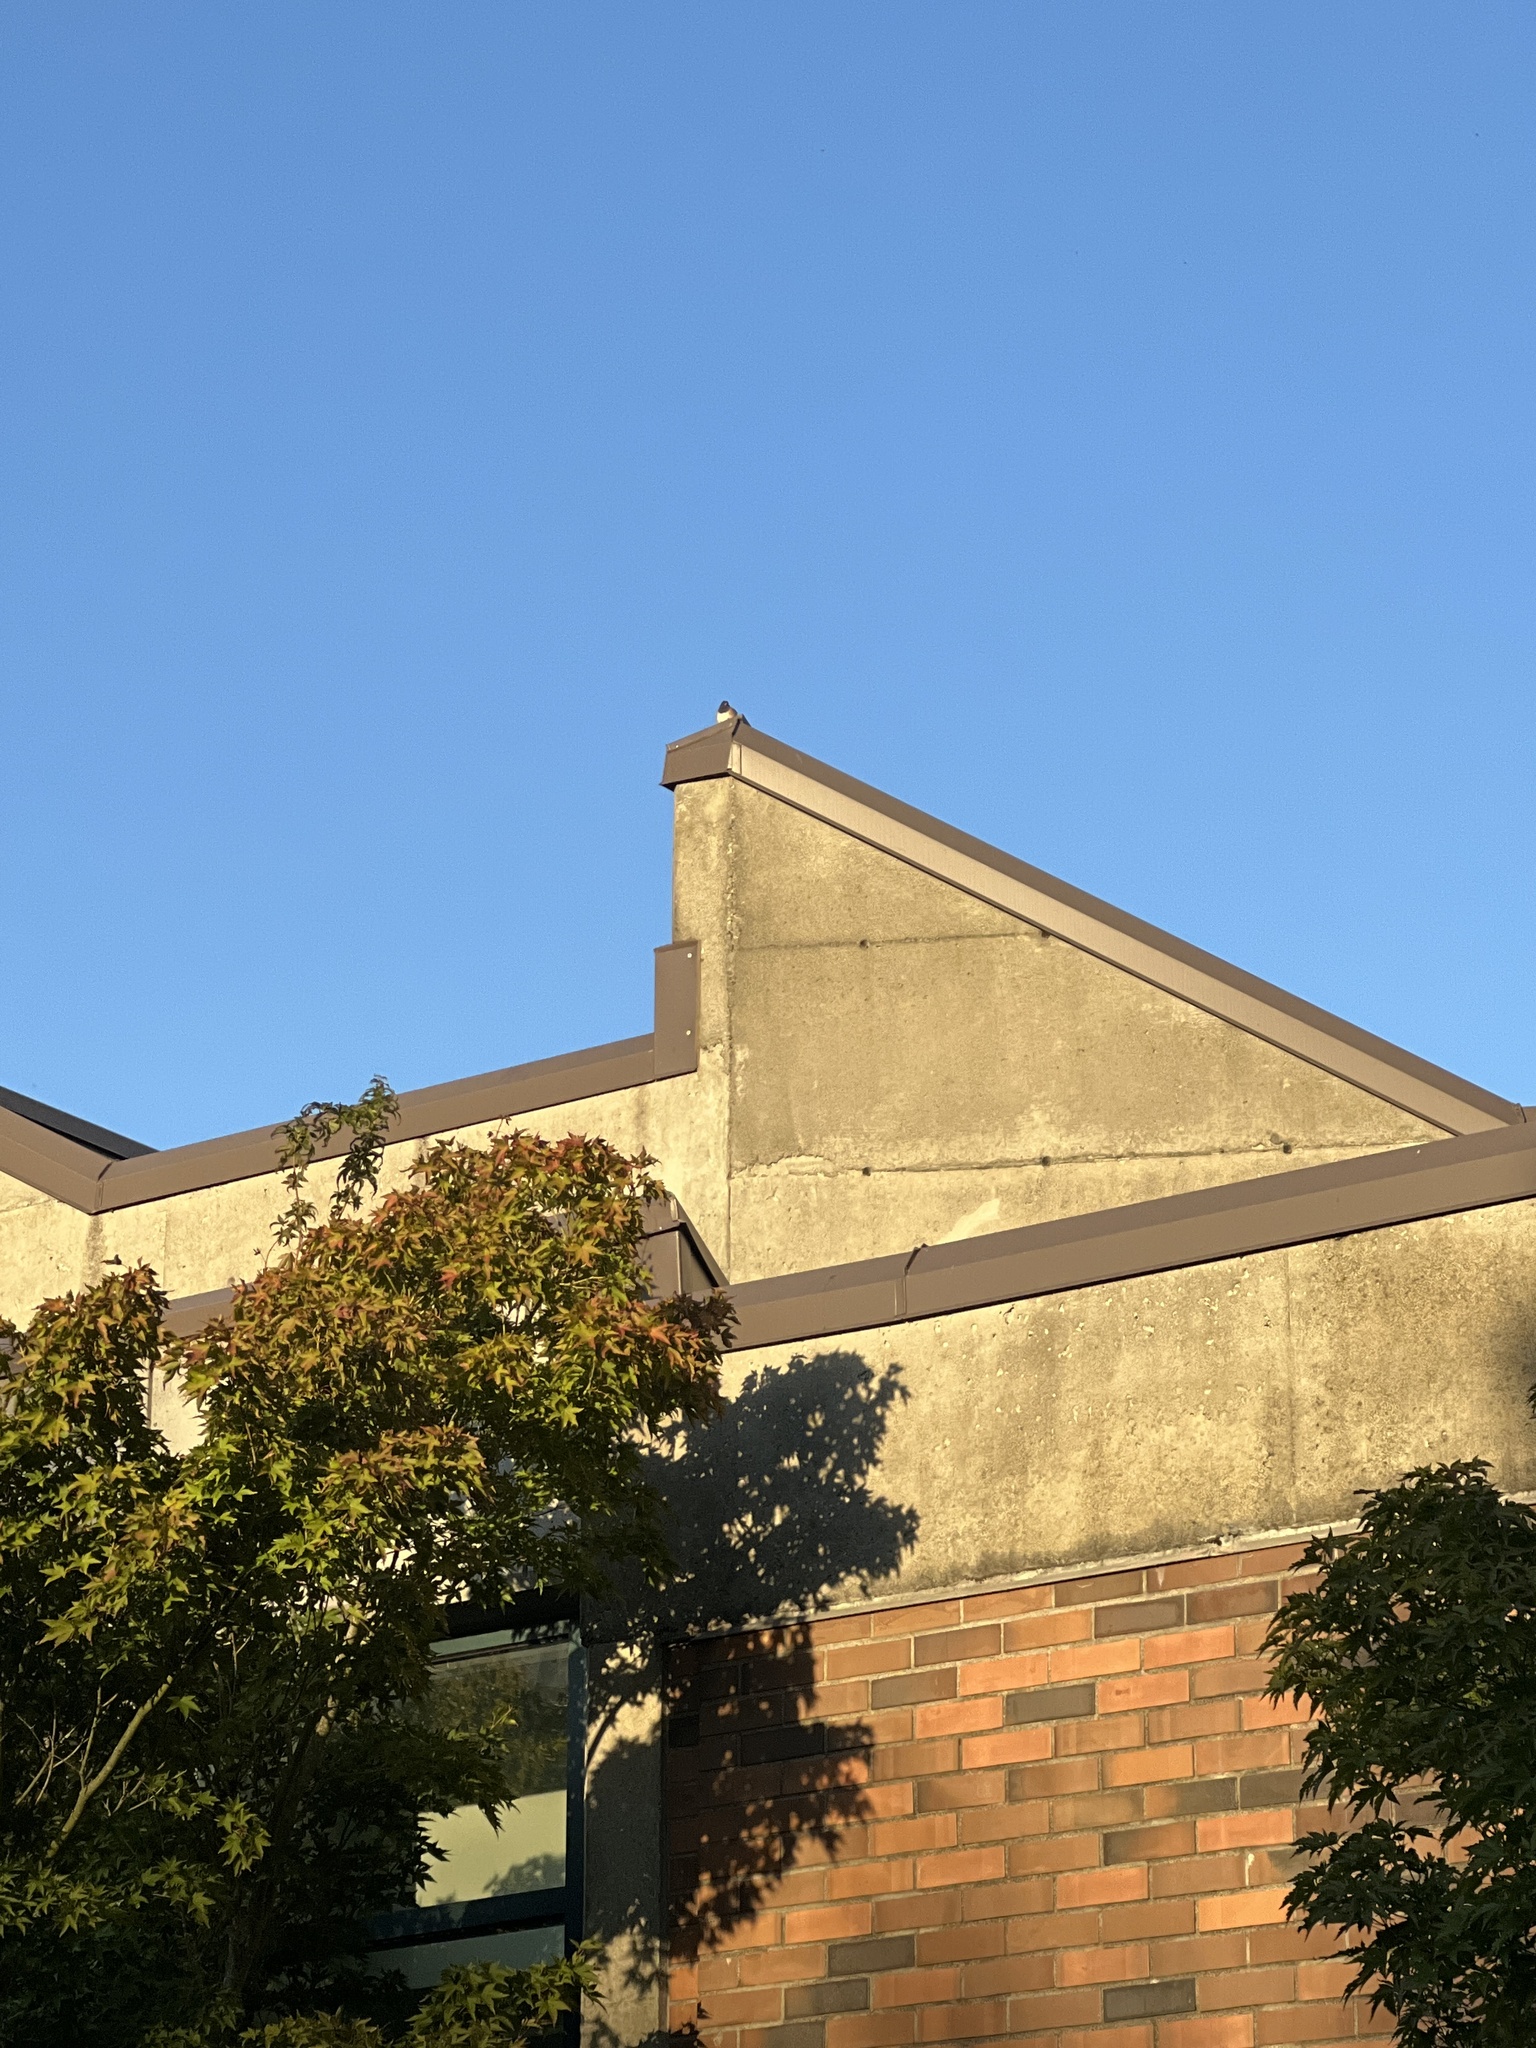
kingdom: Animalia
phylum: Chordata
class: Aves
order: Passeriformes
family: Passerellidae
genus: Junco
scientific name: Junco hyemalis
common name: Dark-eyed junco
